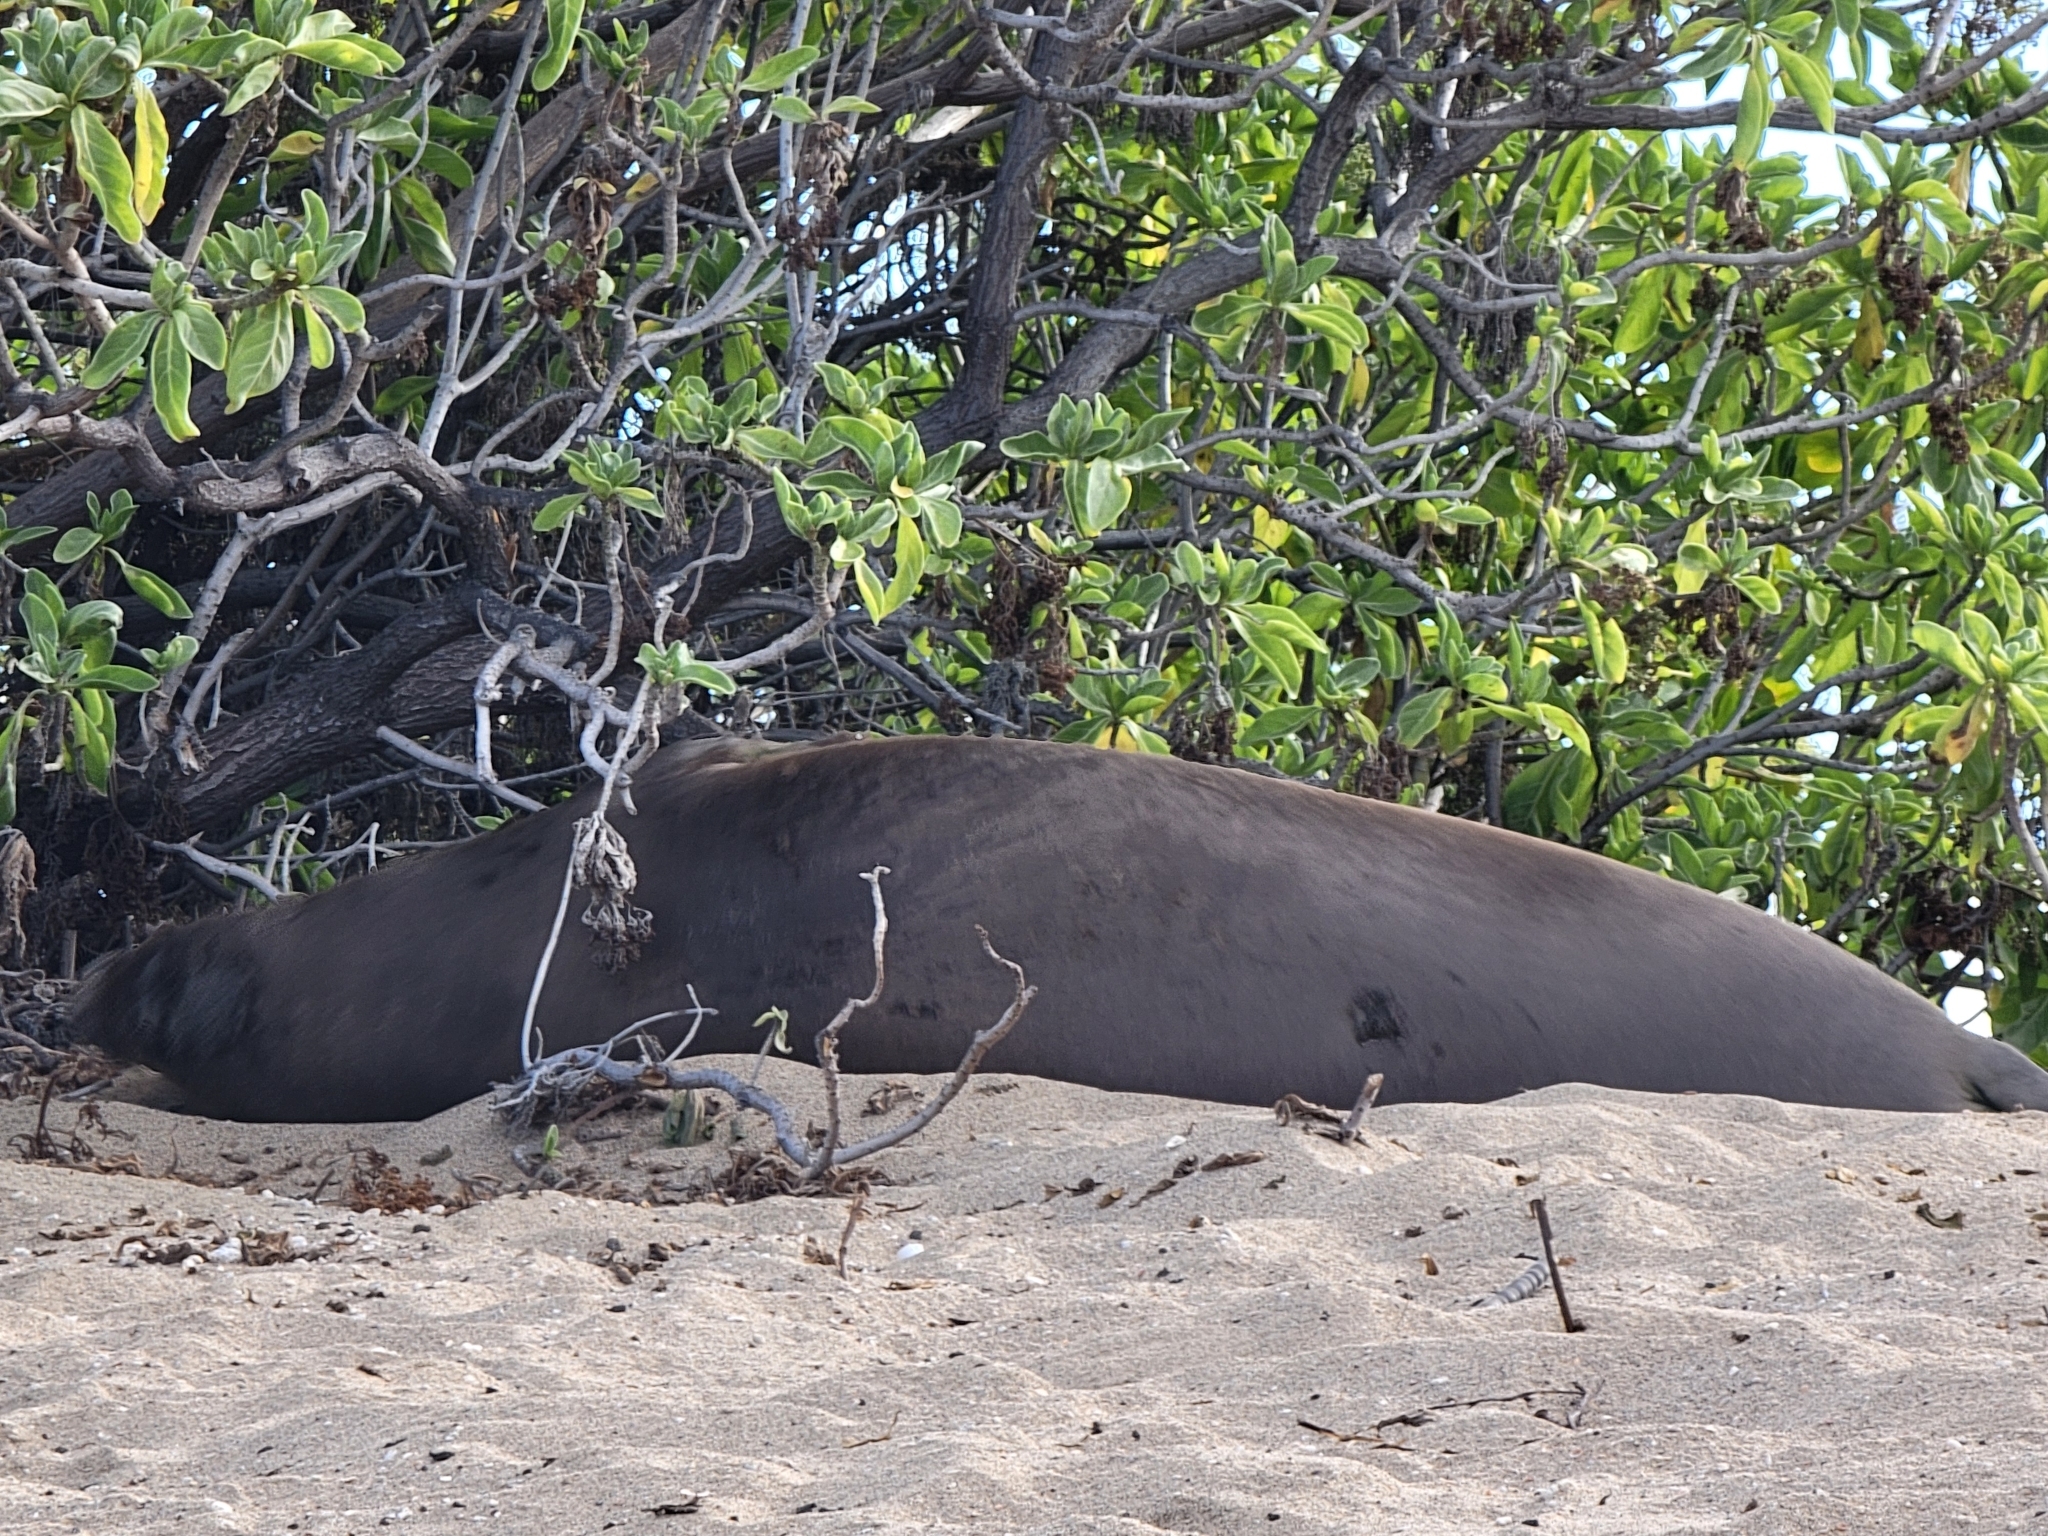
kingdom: Animalia
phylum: Chordata
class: Mammalia
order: Carnivora
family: Phocidae
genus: Neomonachus
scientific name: Neomonachus schauinslandi
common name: Hawaiian monk seal
